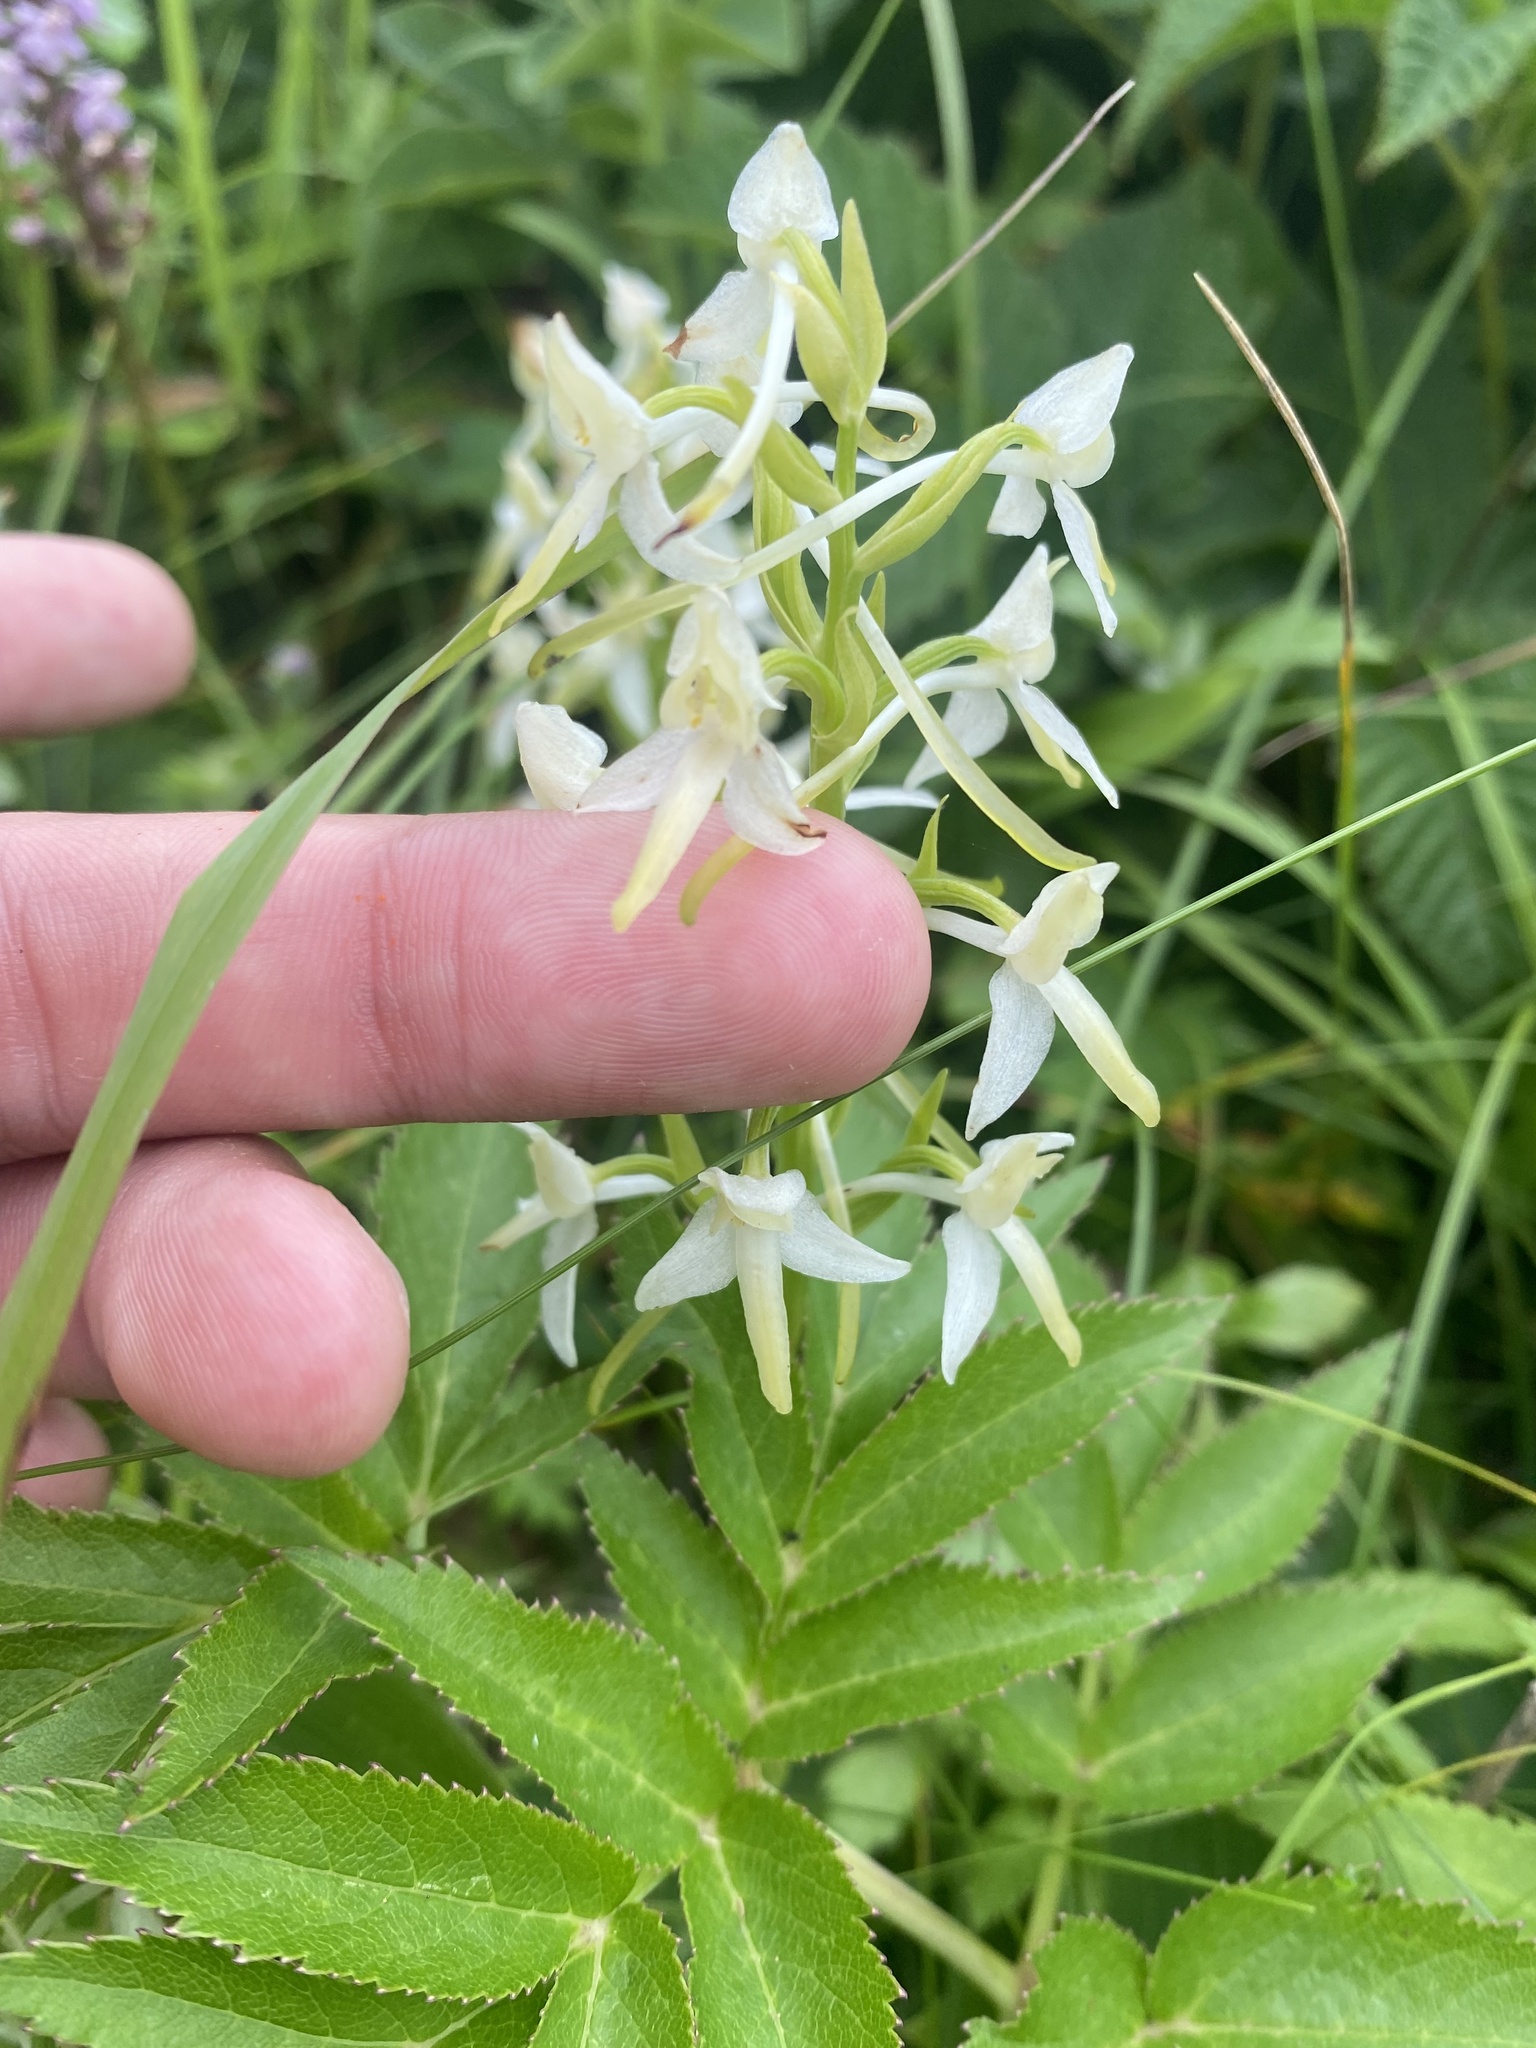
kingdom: Plantae
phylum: Tracheophyta
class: Liliopsida
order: Asparagales
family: Orchidaceae
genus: Platanthera
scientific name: Platanthera metabifolia
